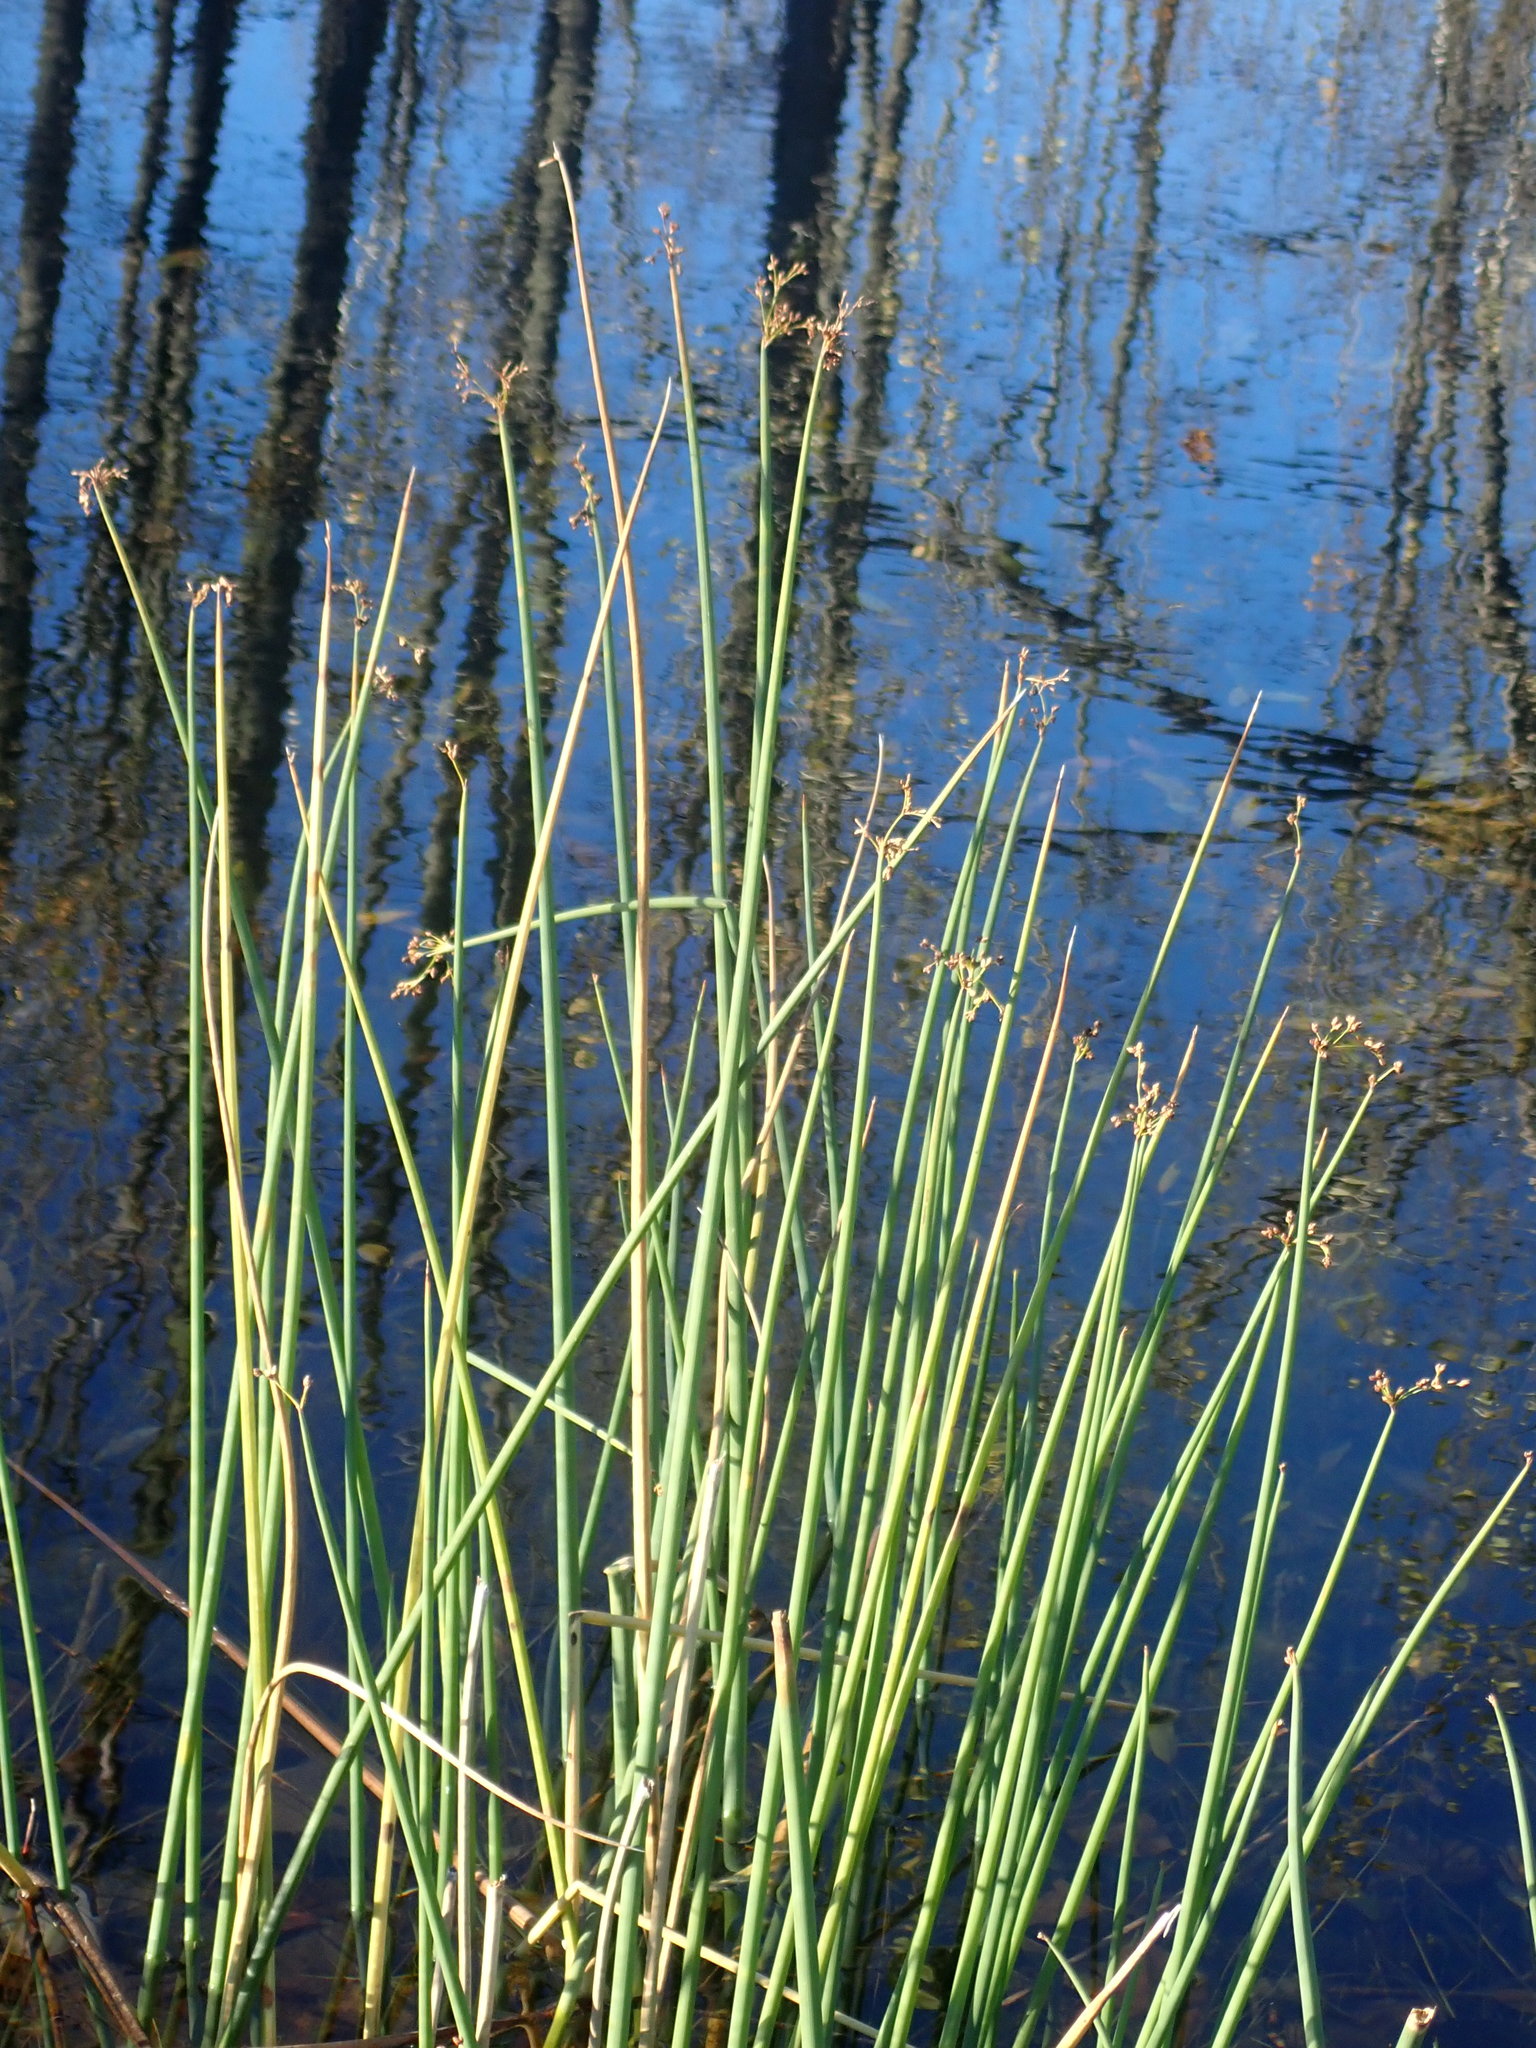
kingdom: Plantae
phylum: Tracheophyta
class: Liliopsida
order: Poales
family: Cyperaceae
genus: Schoenoplectus
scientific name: Schoenoplectus tabernaemontani
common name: Grey club-rush
